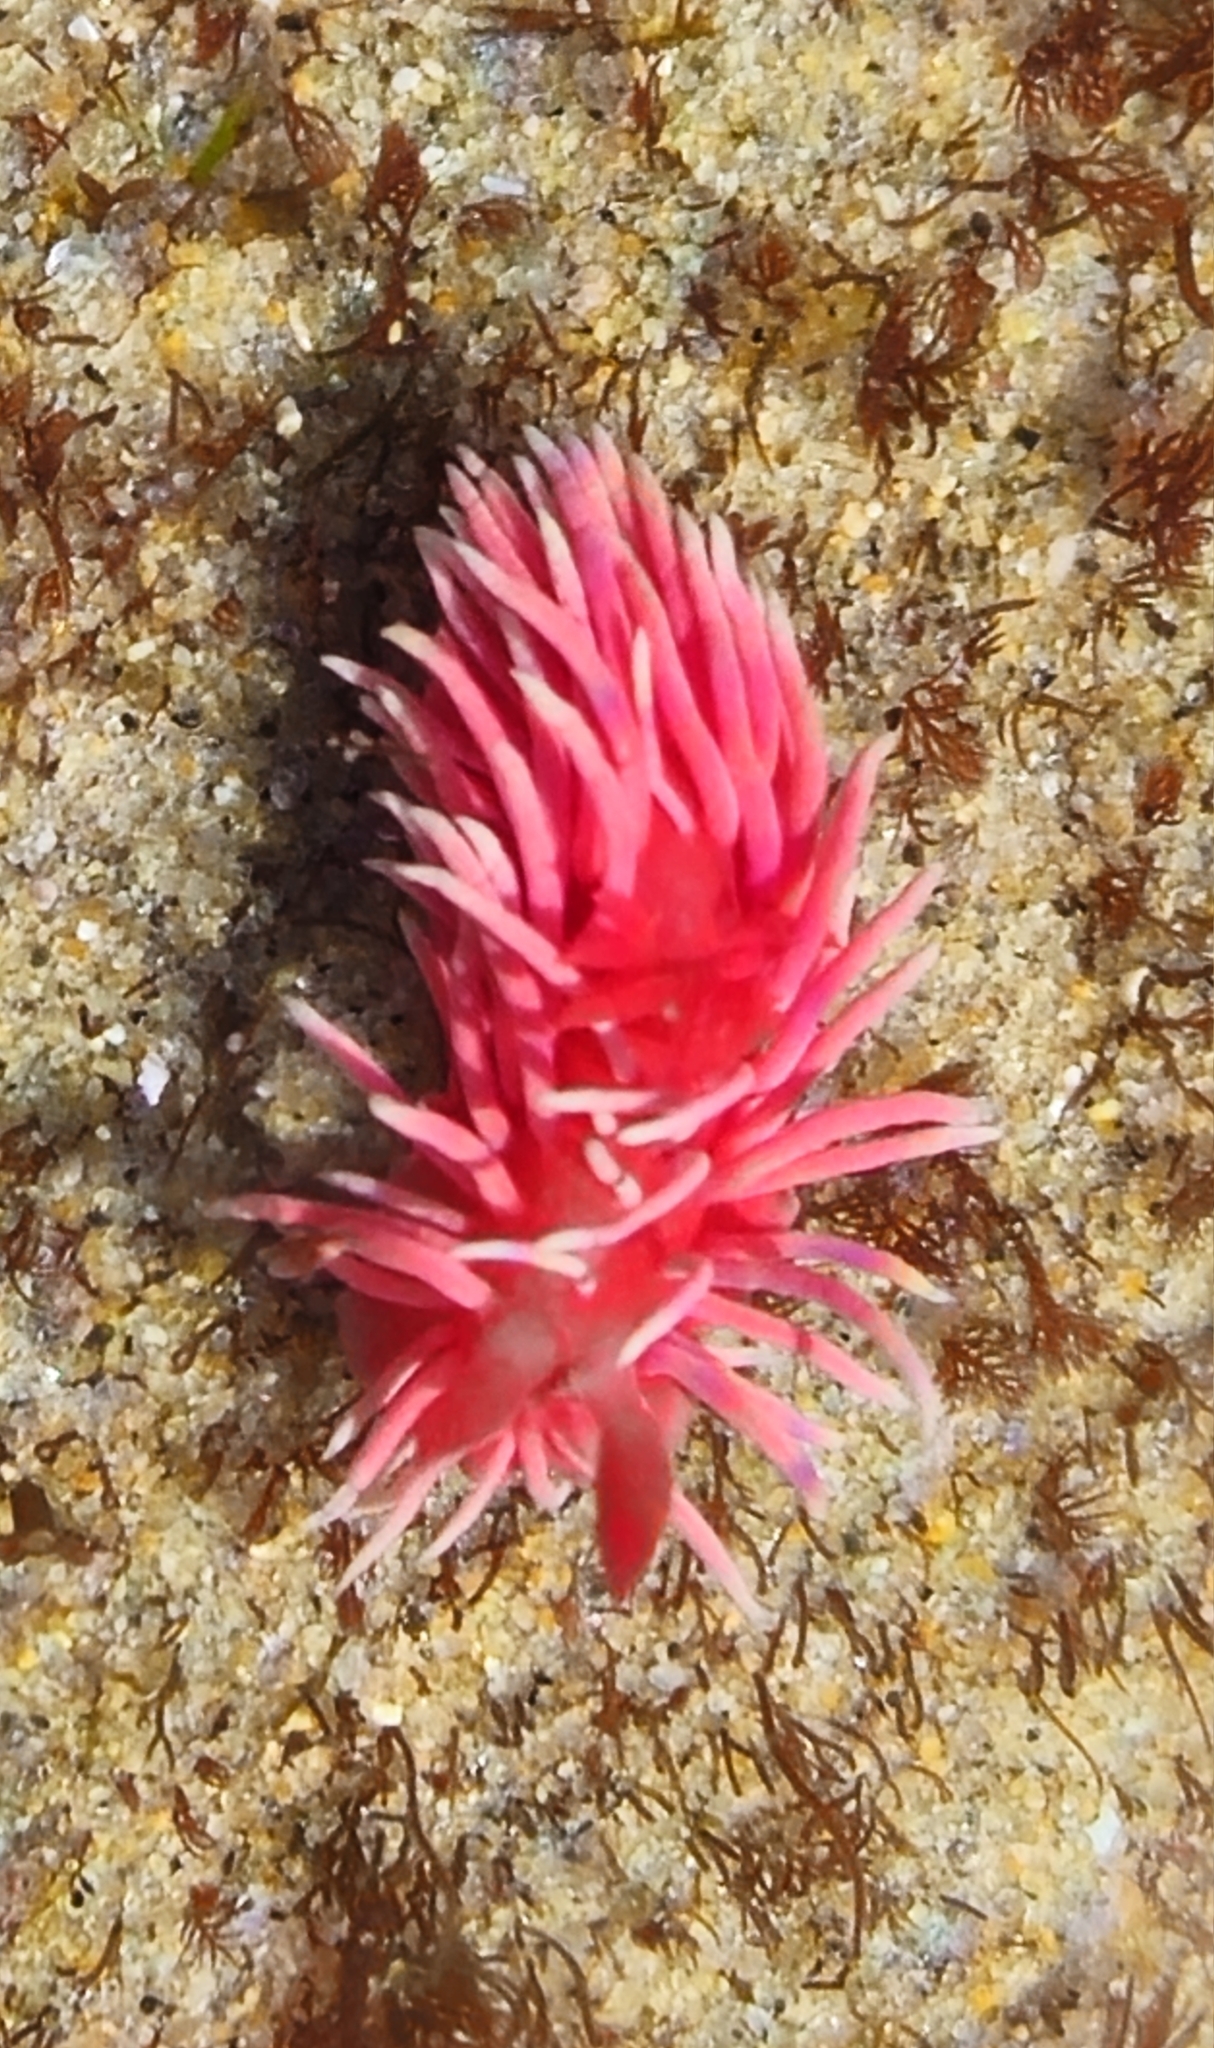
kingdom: Animalia
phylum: Mollusca
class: Gastropoda
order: Nudibranchia
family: Goniodorididae
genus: Okenia
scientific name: Okenia
